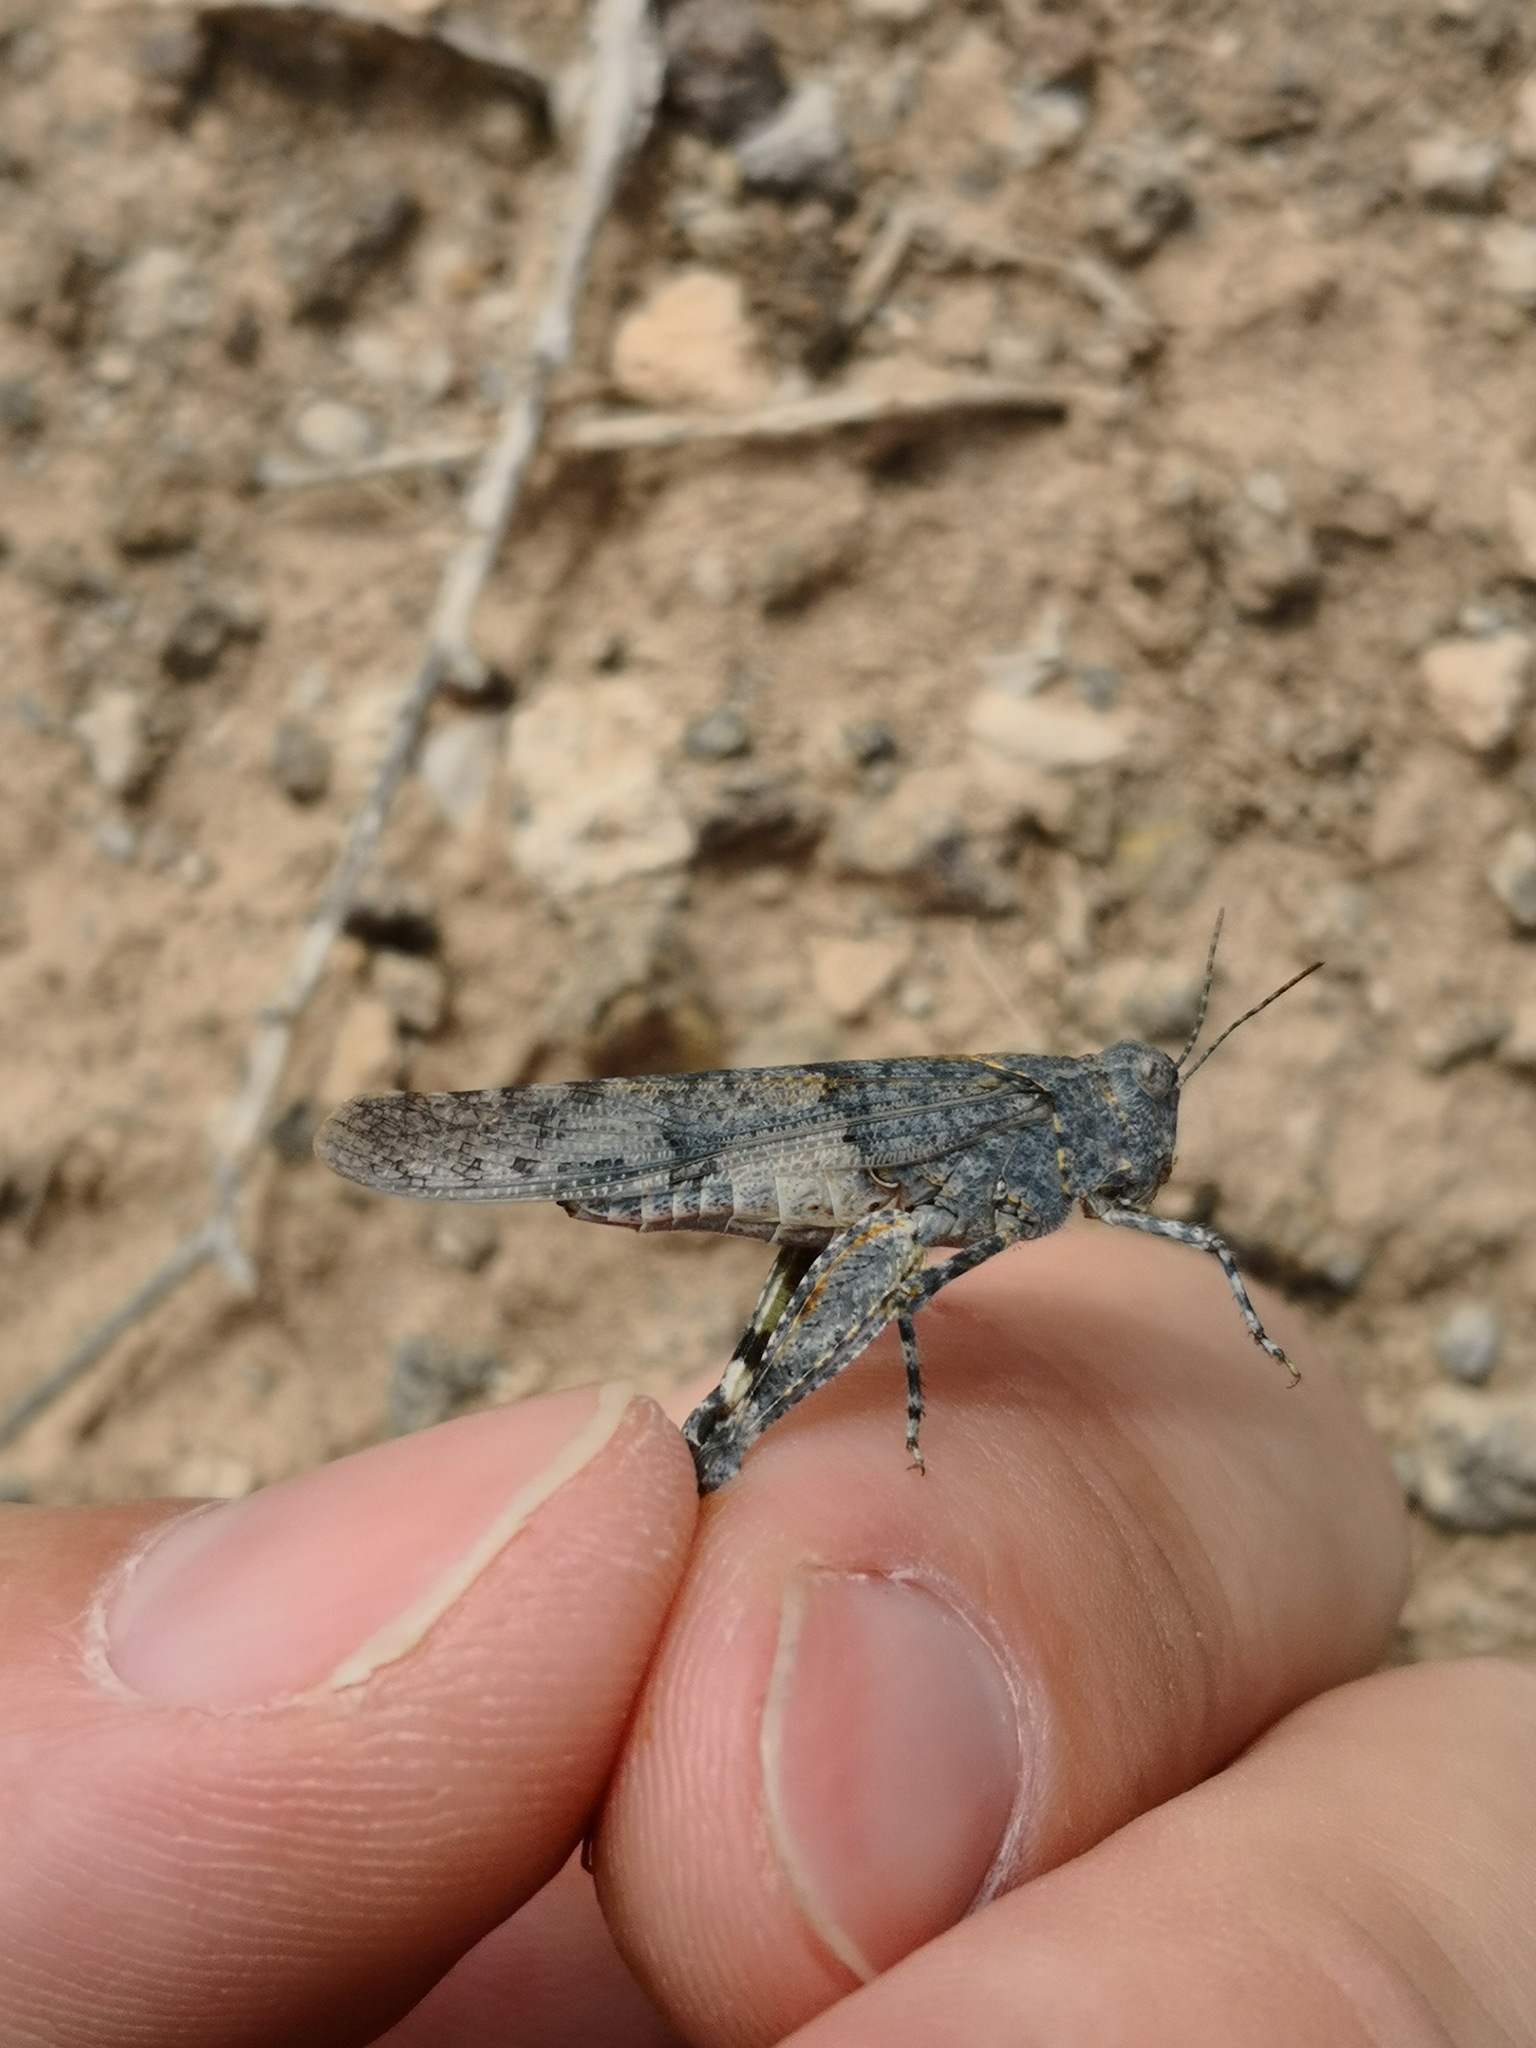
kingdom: Animalia
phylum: Arthropoda
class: Insecta
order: Orthoptera
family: Acrididae
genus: Sphingonotus
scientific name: Sphingonotus guanchus
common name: Gran canaria sand grasshopper
